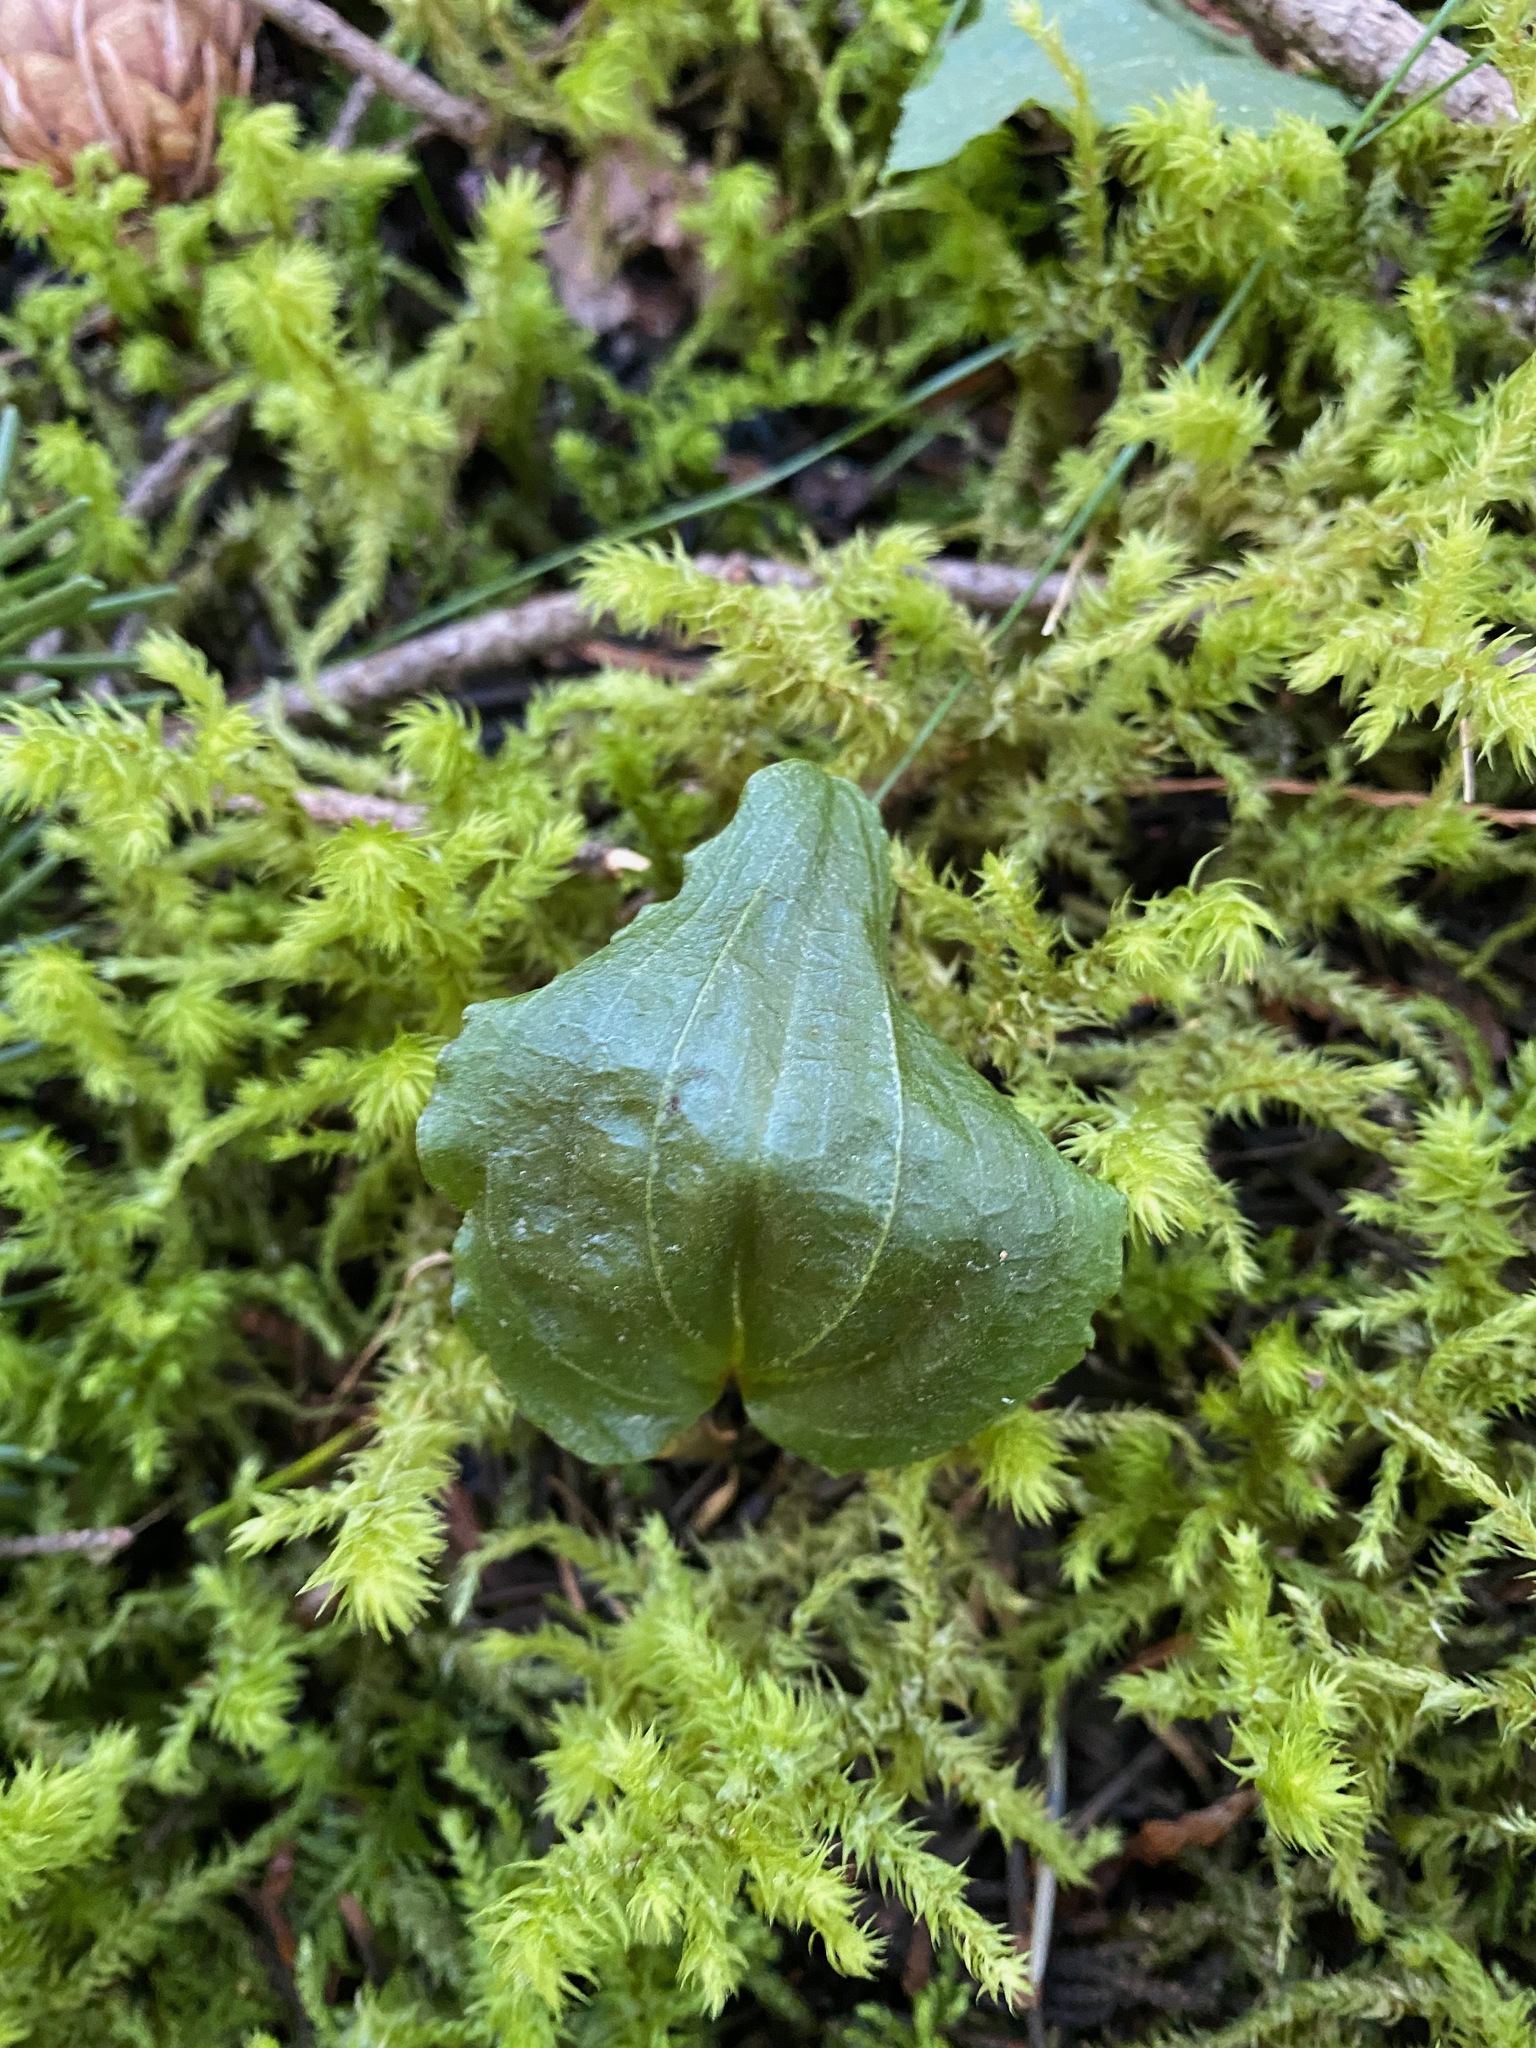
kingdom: Plantae
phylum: Tracheophyta
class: Liliopsida
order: Asparagales
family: Orchidaceae
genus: Calypso
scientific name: Calypso bulbosa
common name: Calypso
